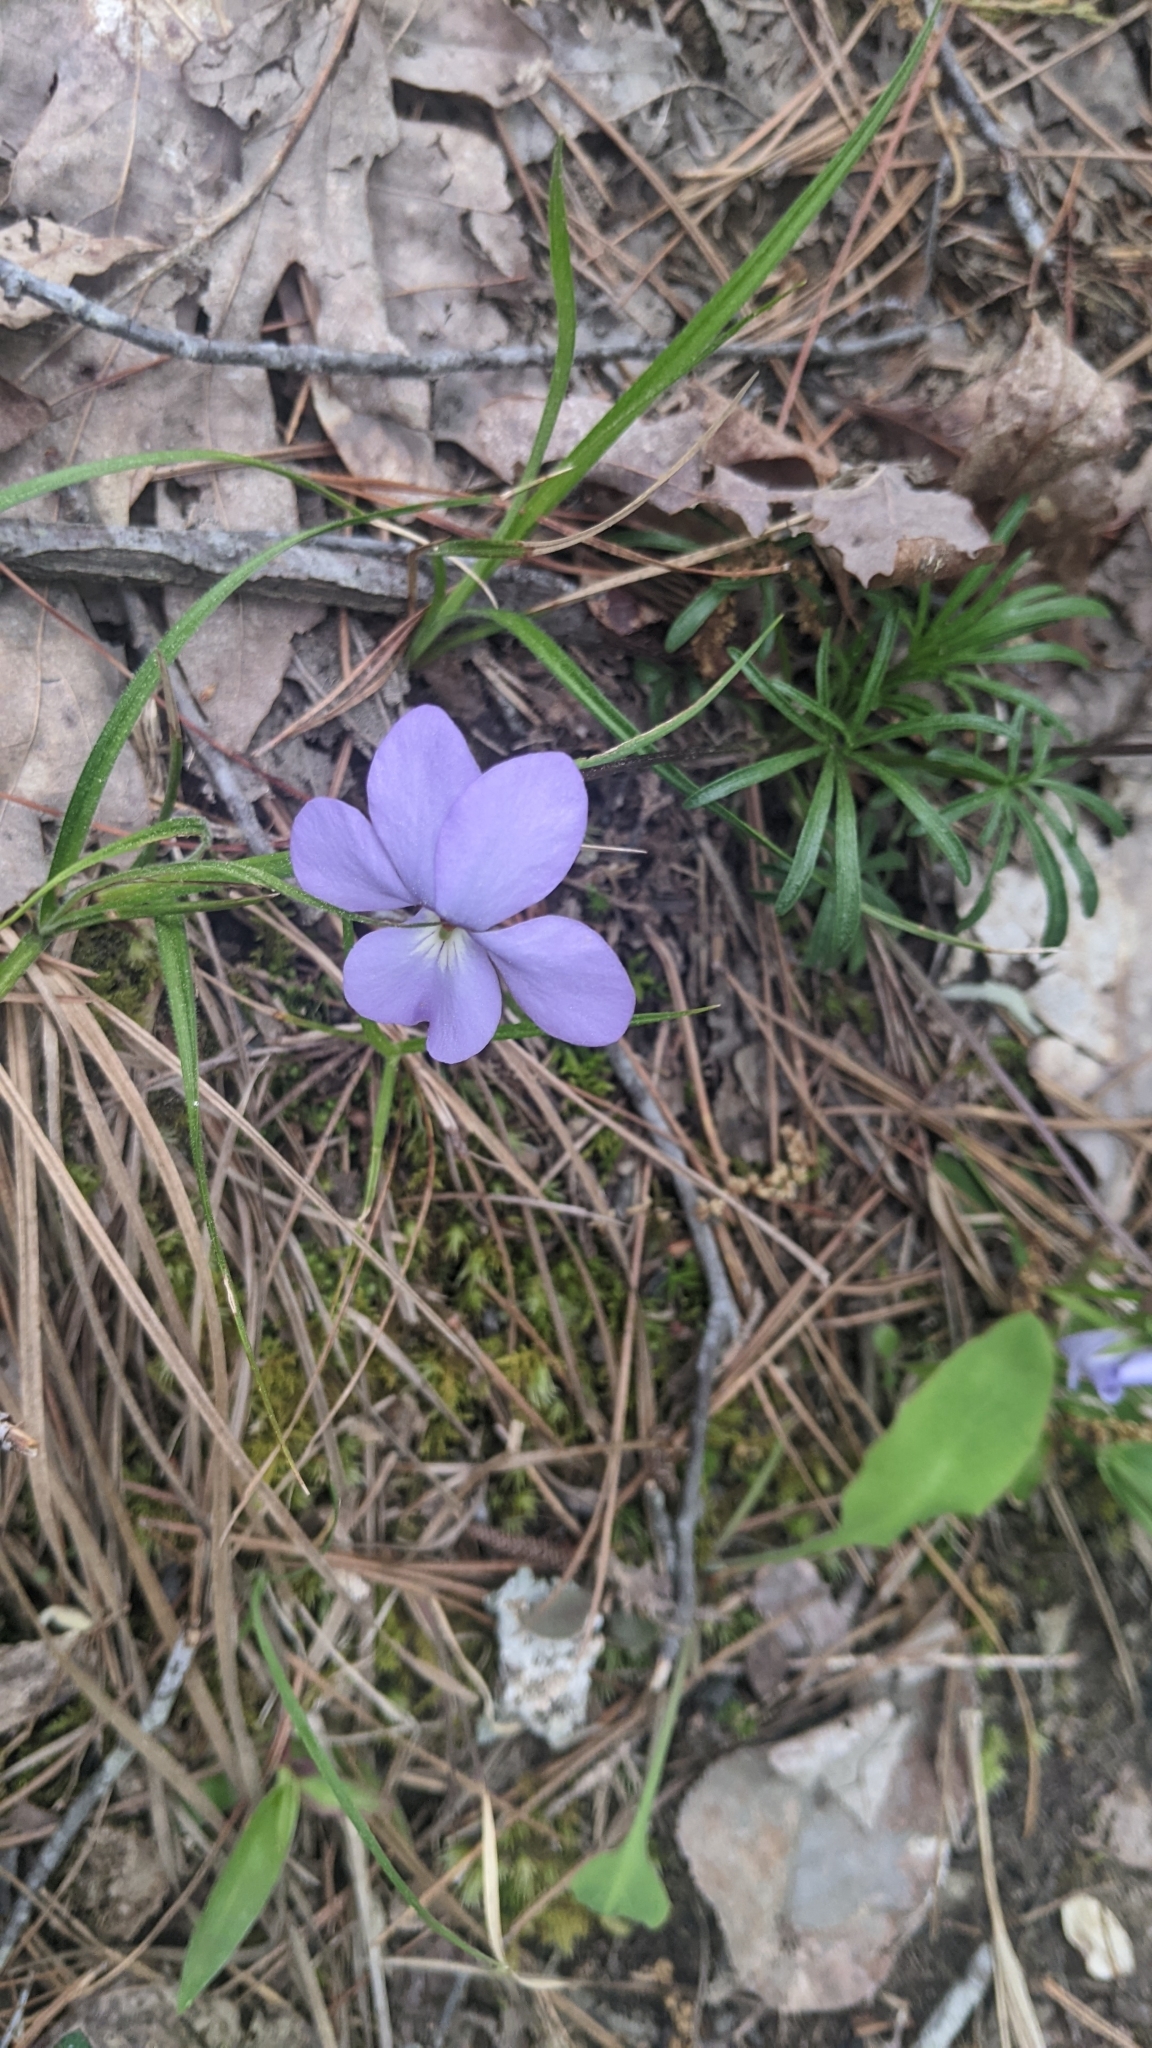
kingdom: Plantae
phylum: Tracheophyta
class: Magnoliopsida
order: Malpighiales
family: Violaceae
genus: Viola
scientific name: Viola pedata
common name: Pansy violet
